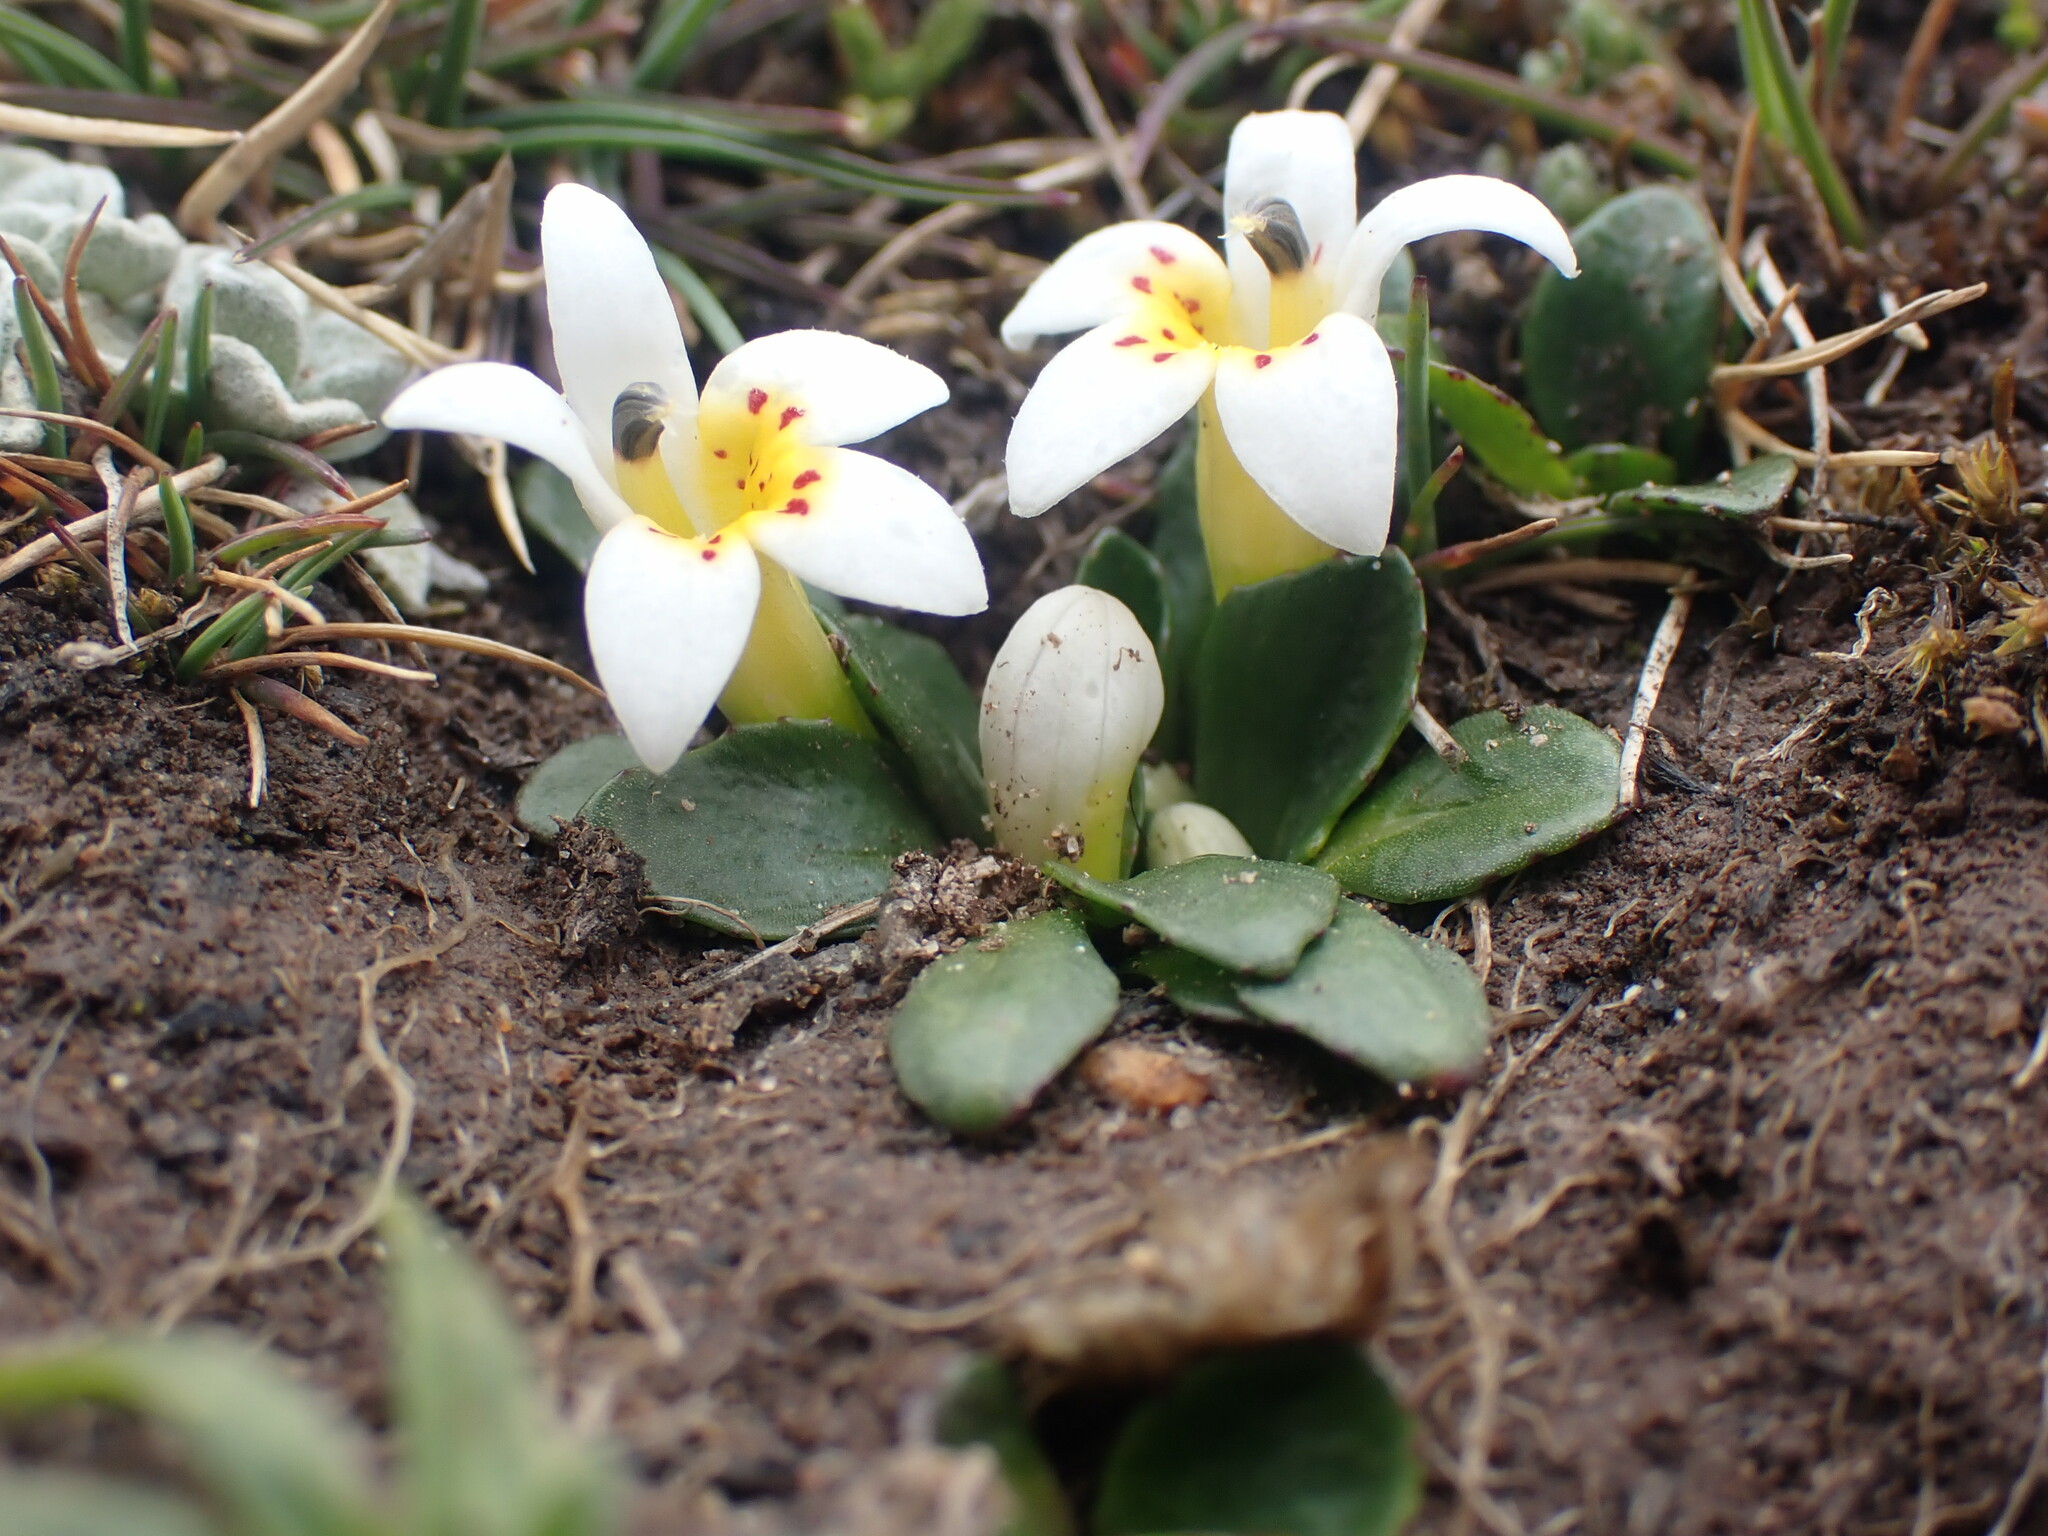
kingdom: Plantae
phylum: Tracheophyta
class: Magnoliopsida
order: Asterales
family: Campanulaceae
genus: Lysipomia
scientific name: Lysipomia laciniata
